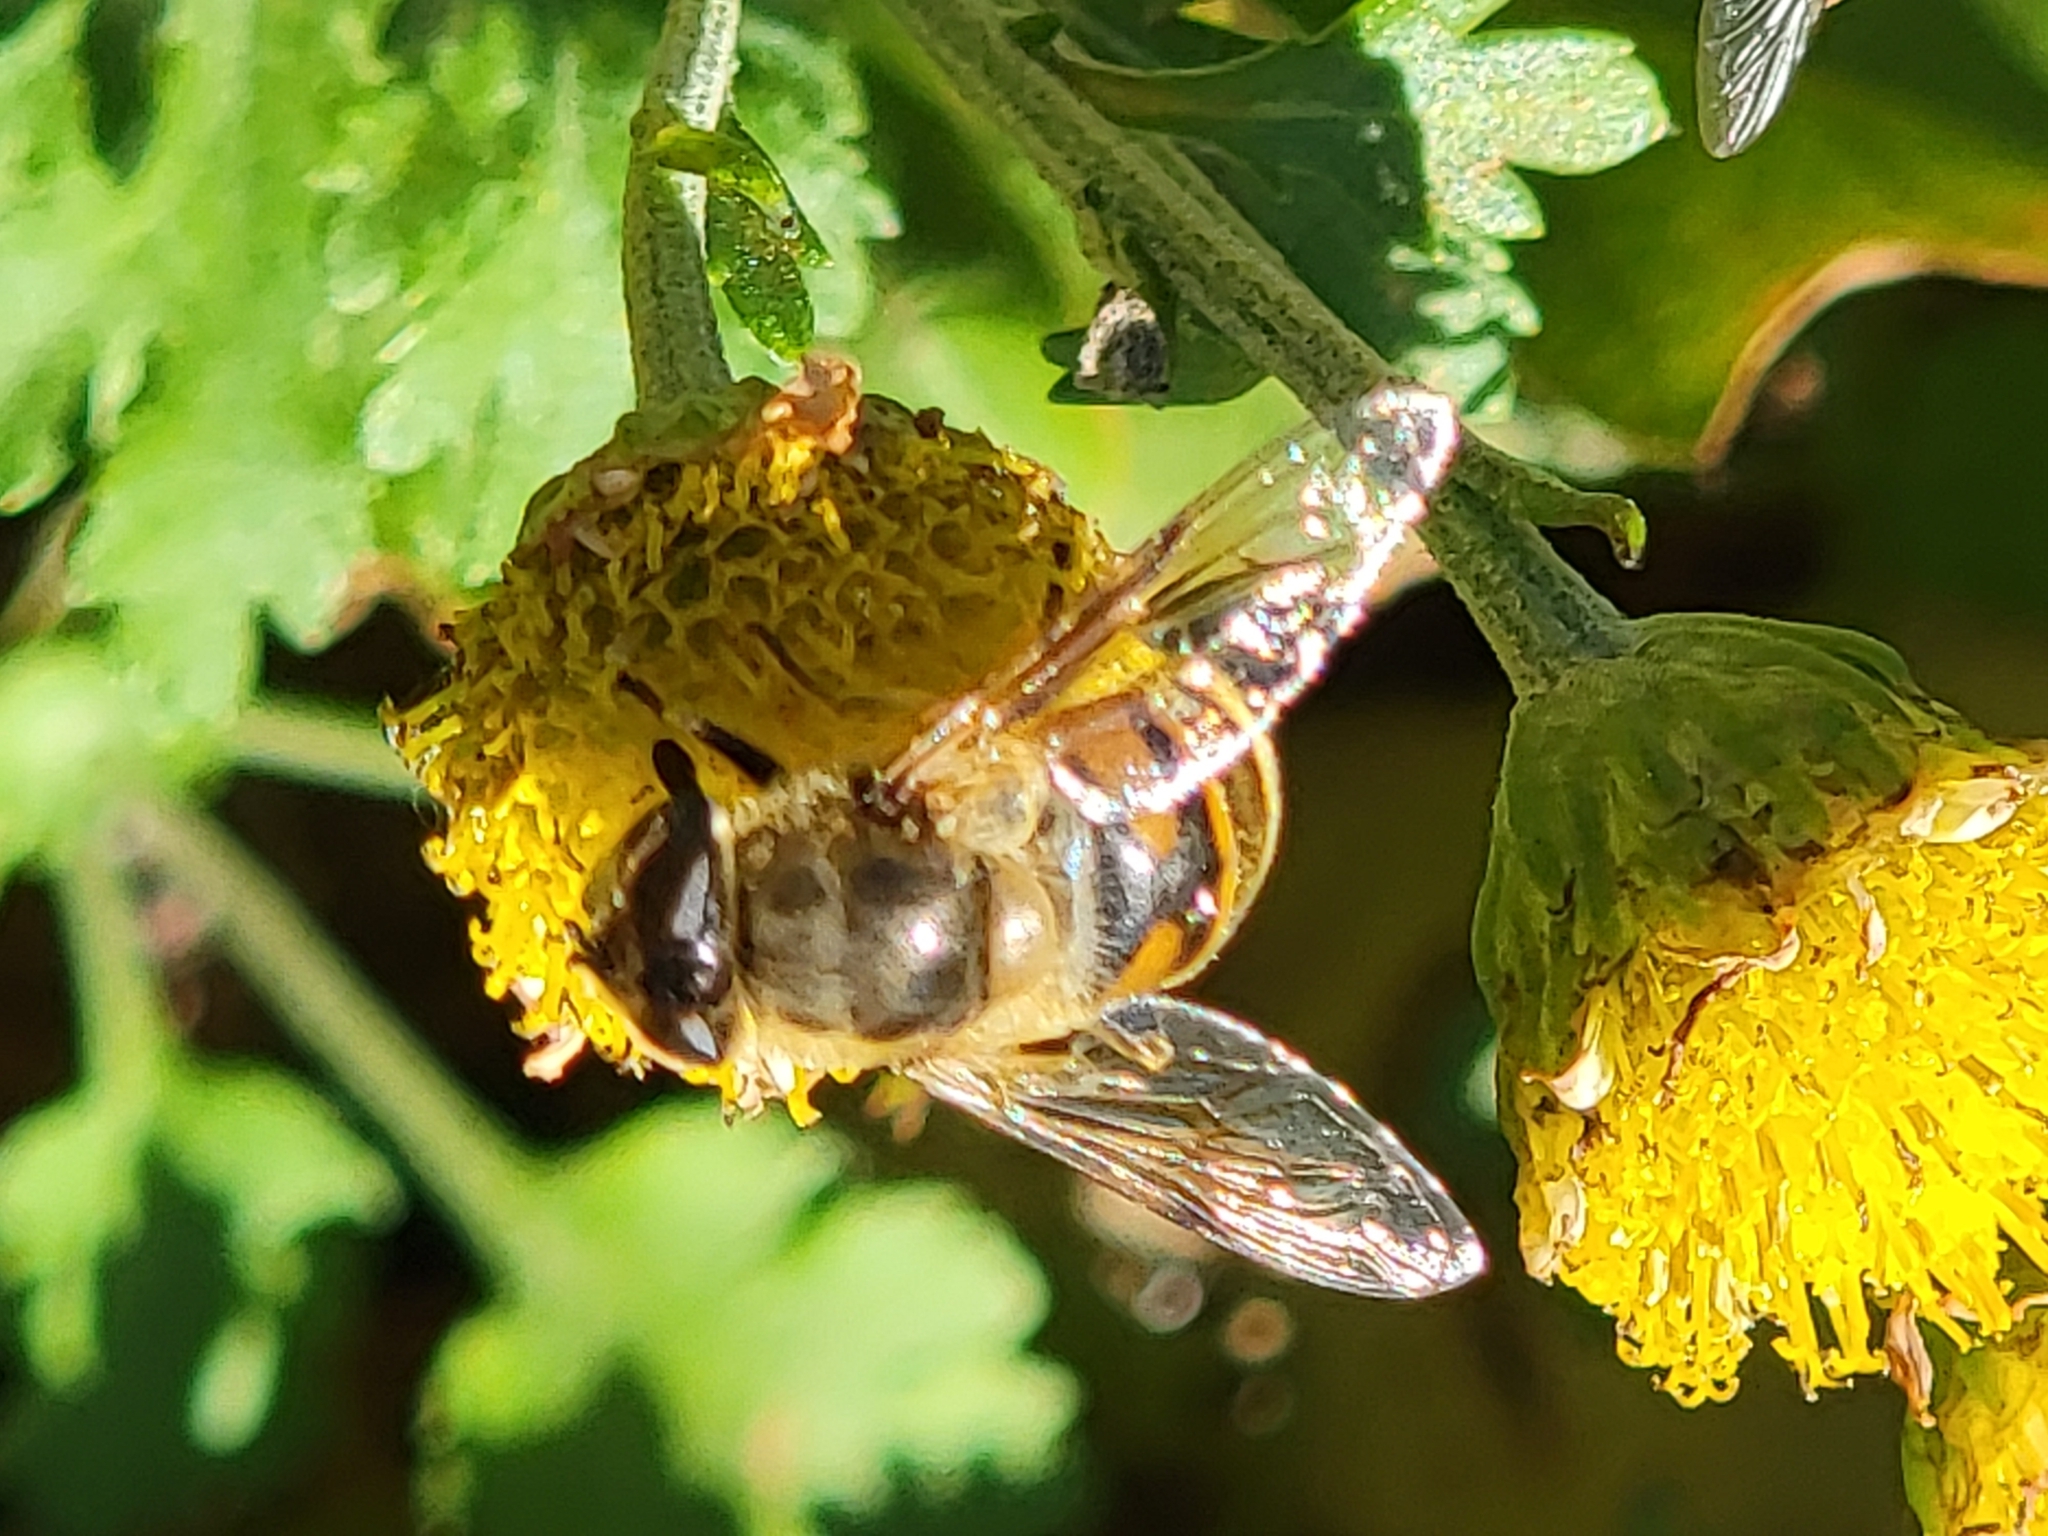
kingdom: Animalia
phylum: Arthropoda
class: Insecta
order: Diptera
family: Syrphidae
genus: Eristalis
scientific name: Eristalis tenax
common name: Drone fly
